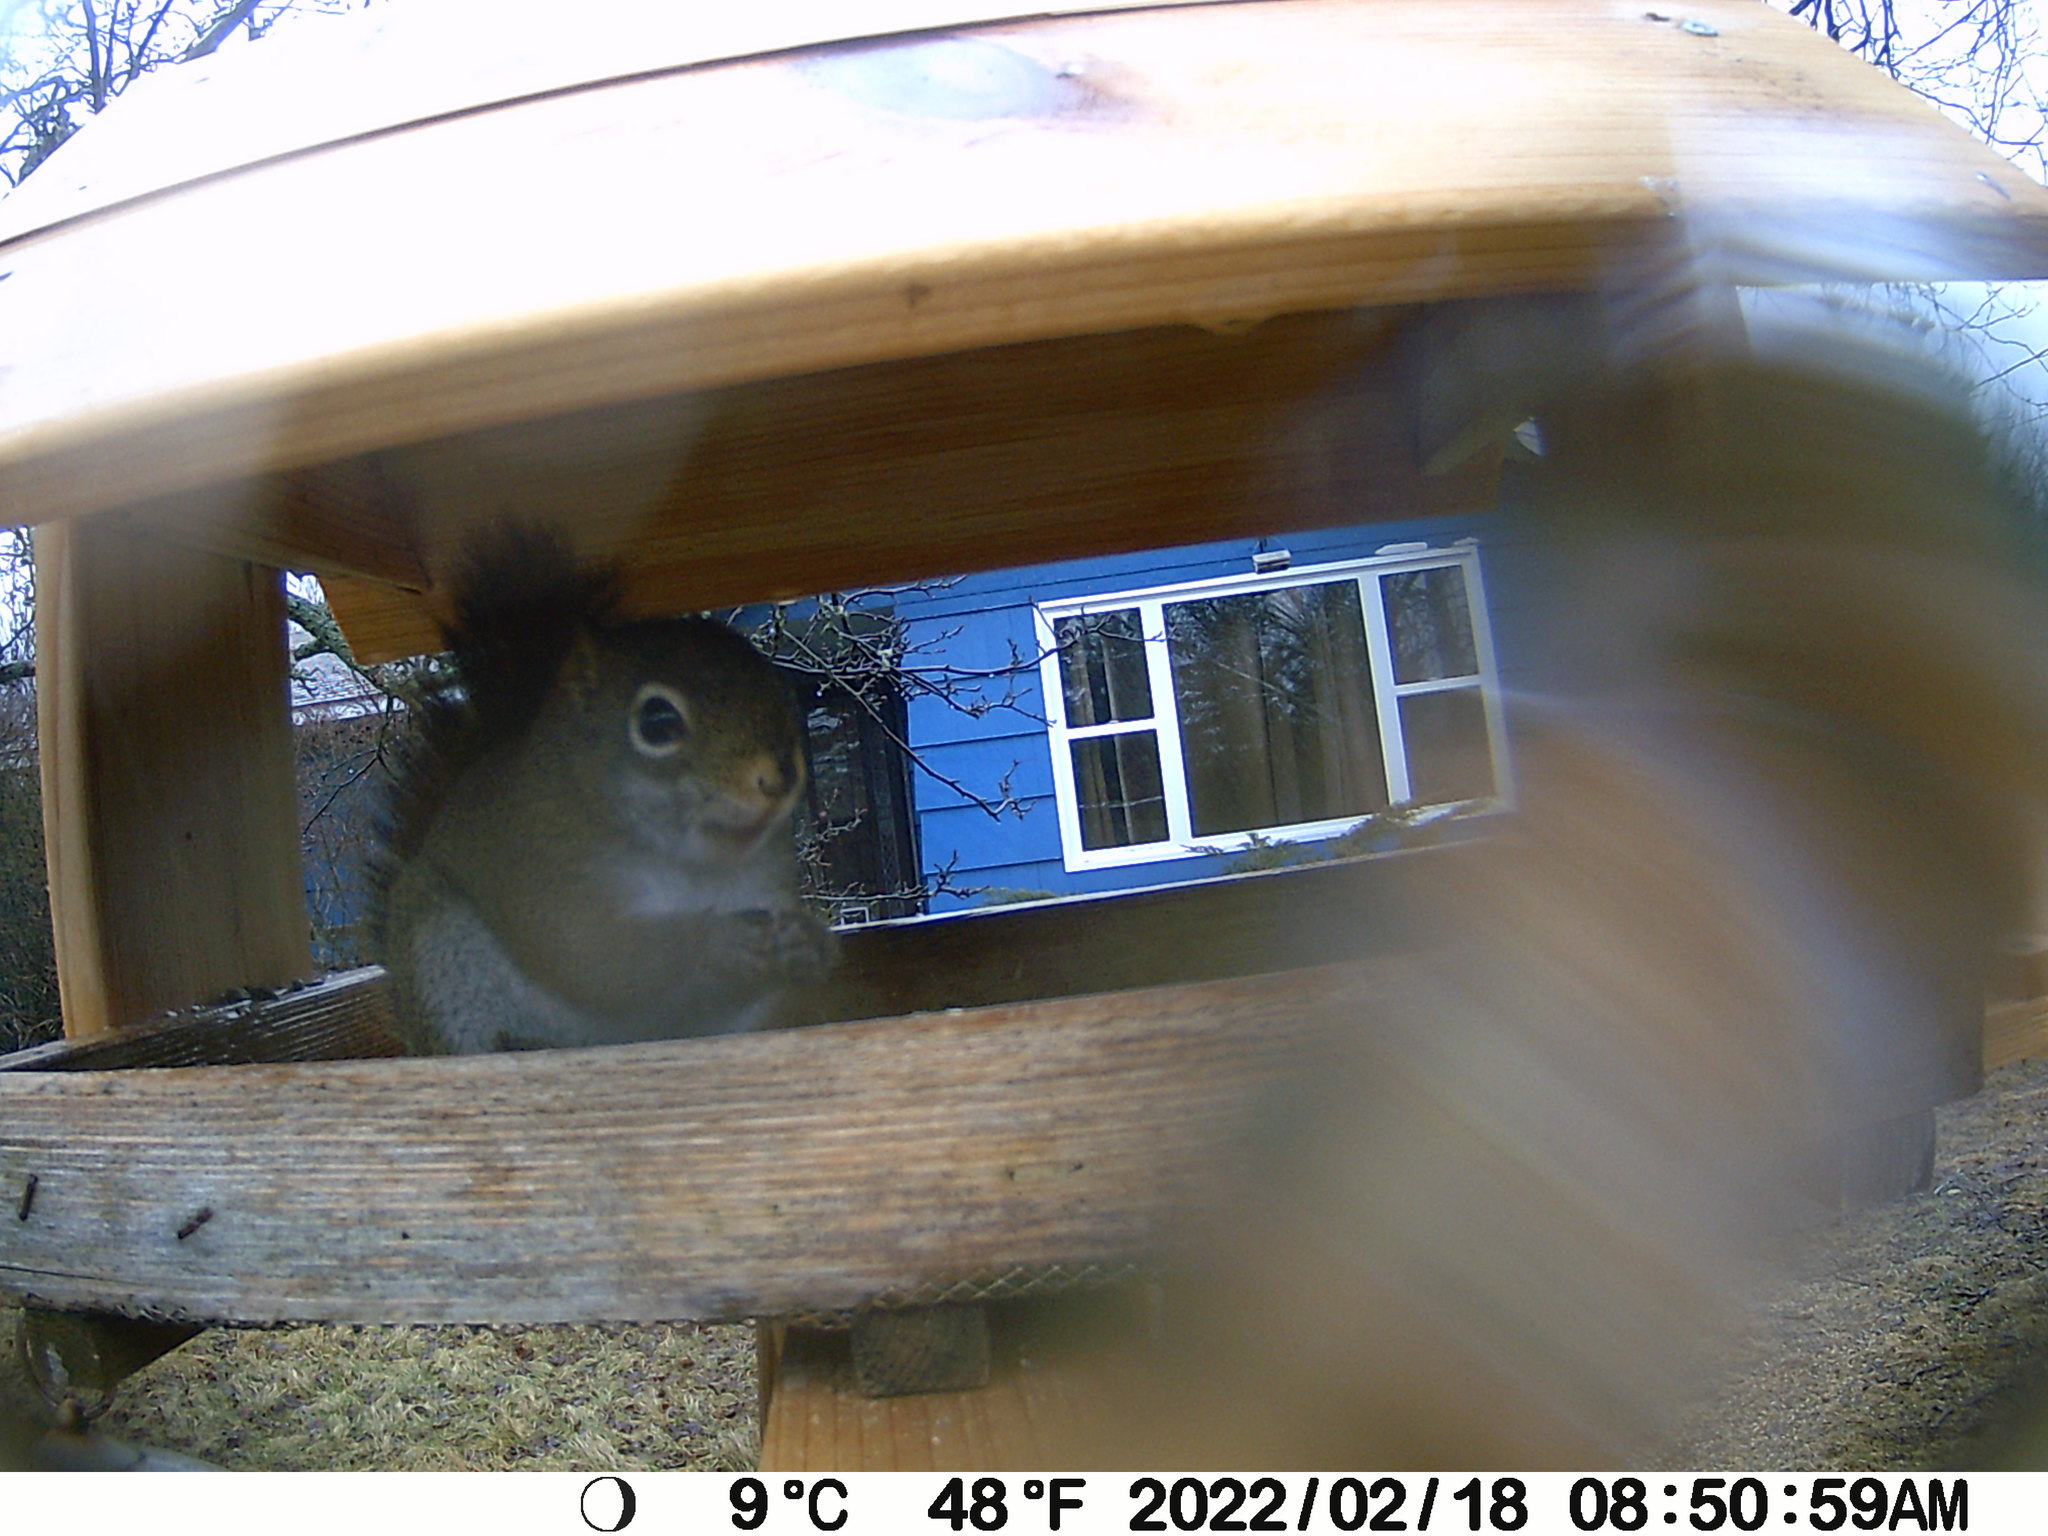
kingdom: Animalia
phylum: Chordata
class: Mammalia
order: Rodentia
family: Sciuridae
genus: Tamiasciurus
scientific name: Tamiasciurus hudsonicus
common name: Red squirrel
